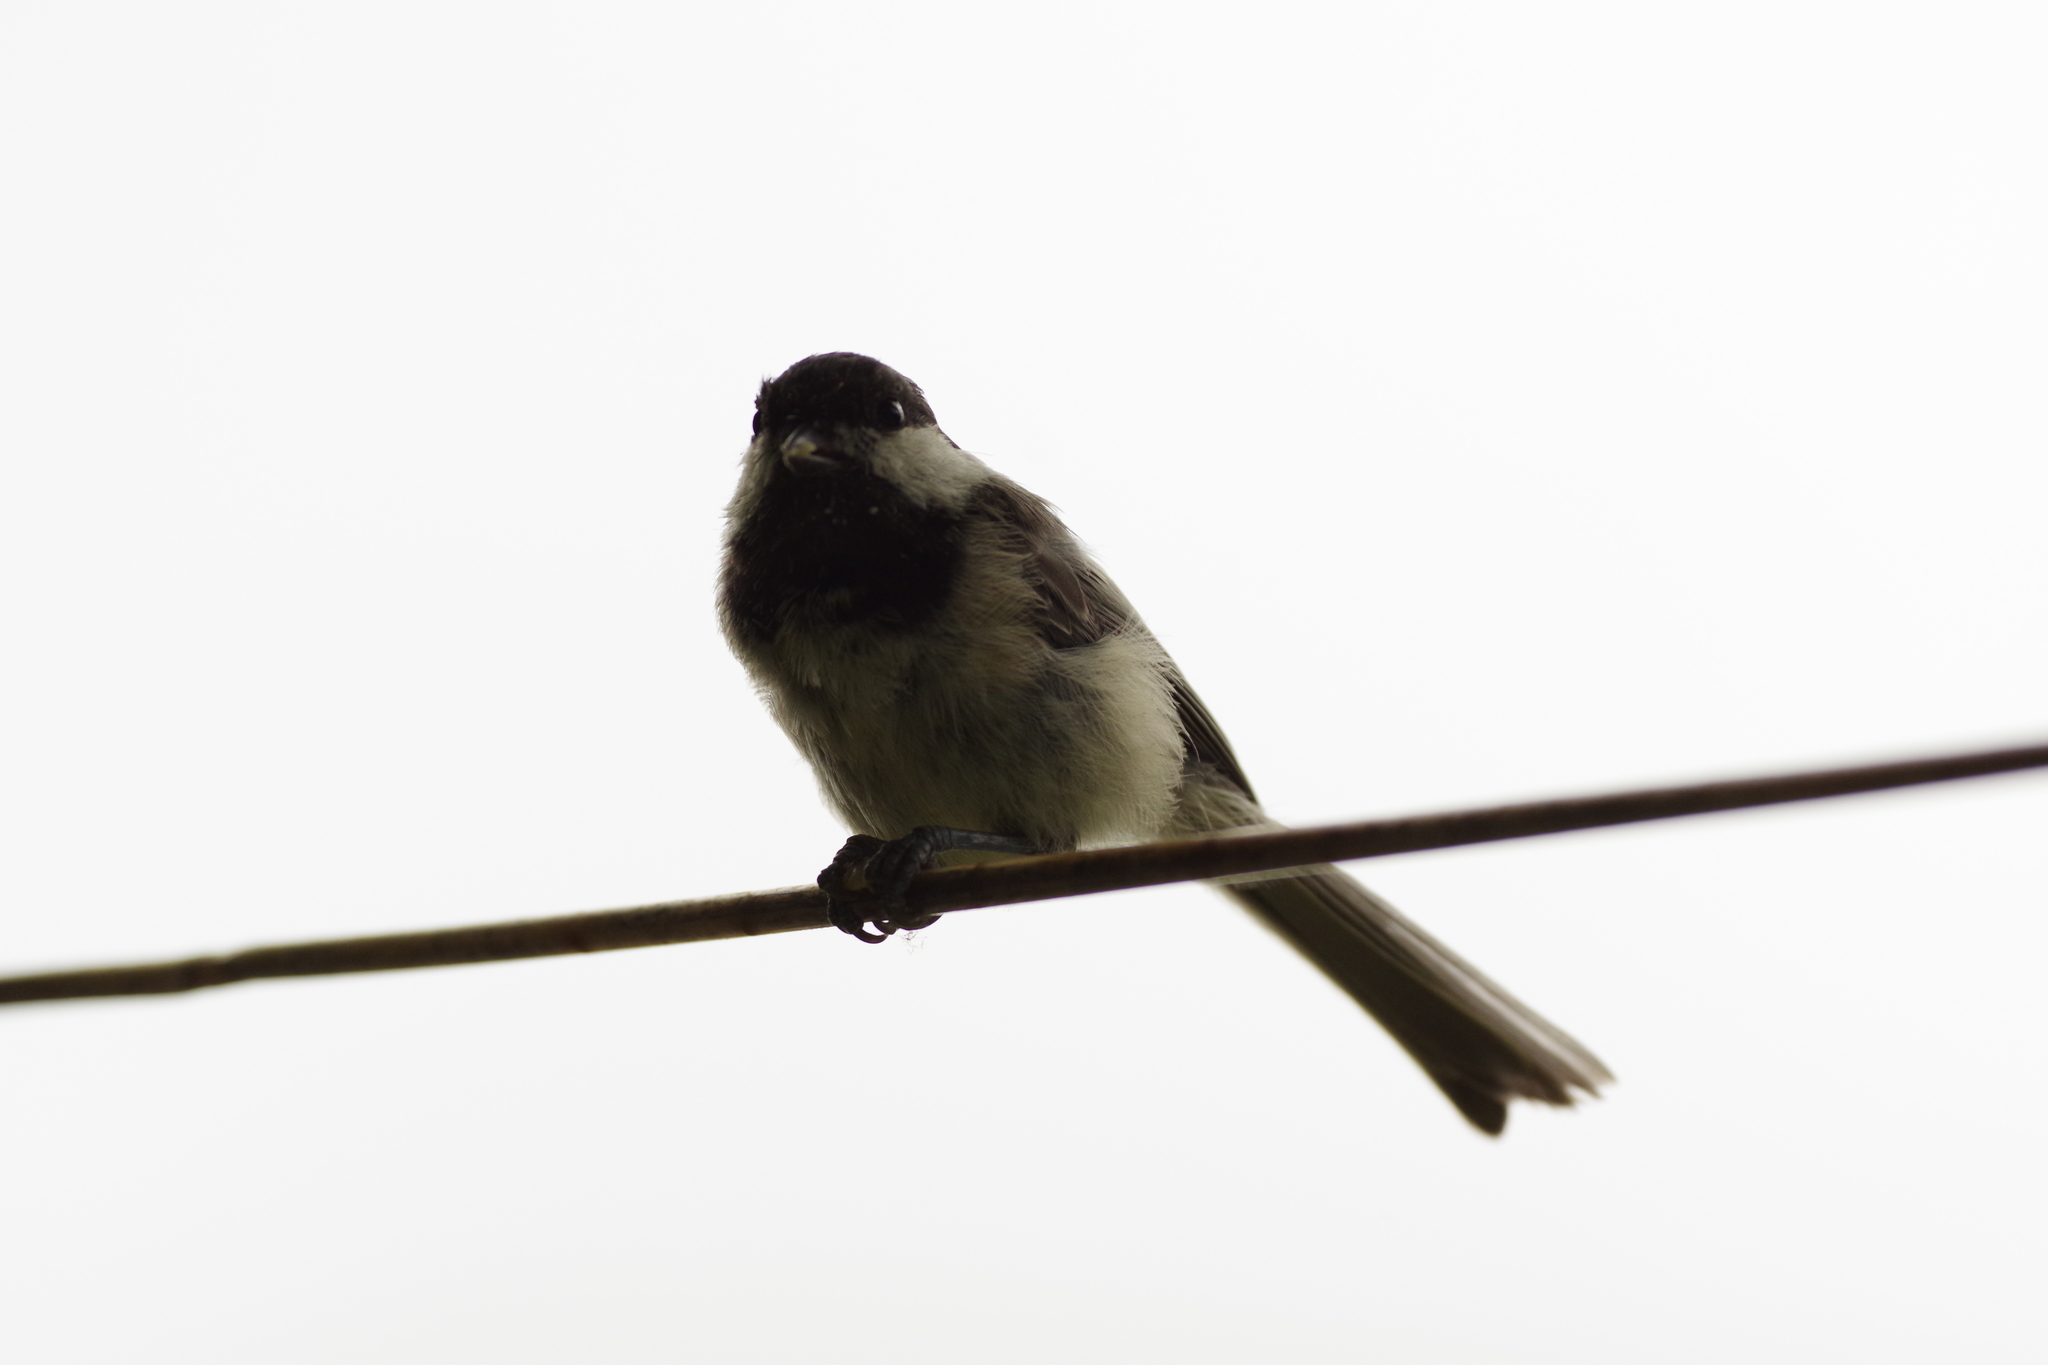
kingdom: Animalia
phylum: Chordata
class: Aves
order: Passeriformes
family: Paridae
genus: Poecile
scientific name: Poecile atricapillus
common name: Black-capped chickadee
